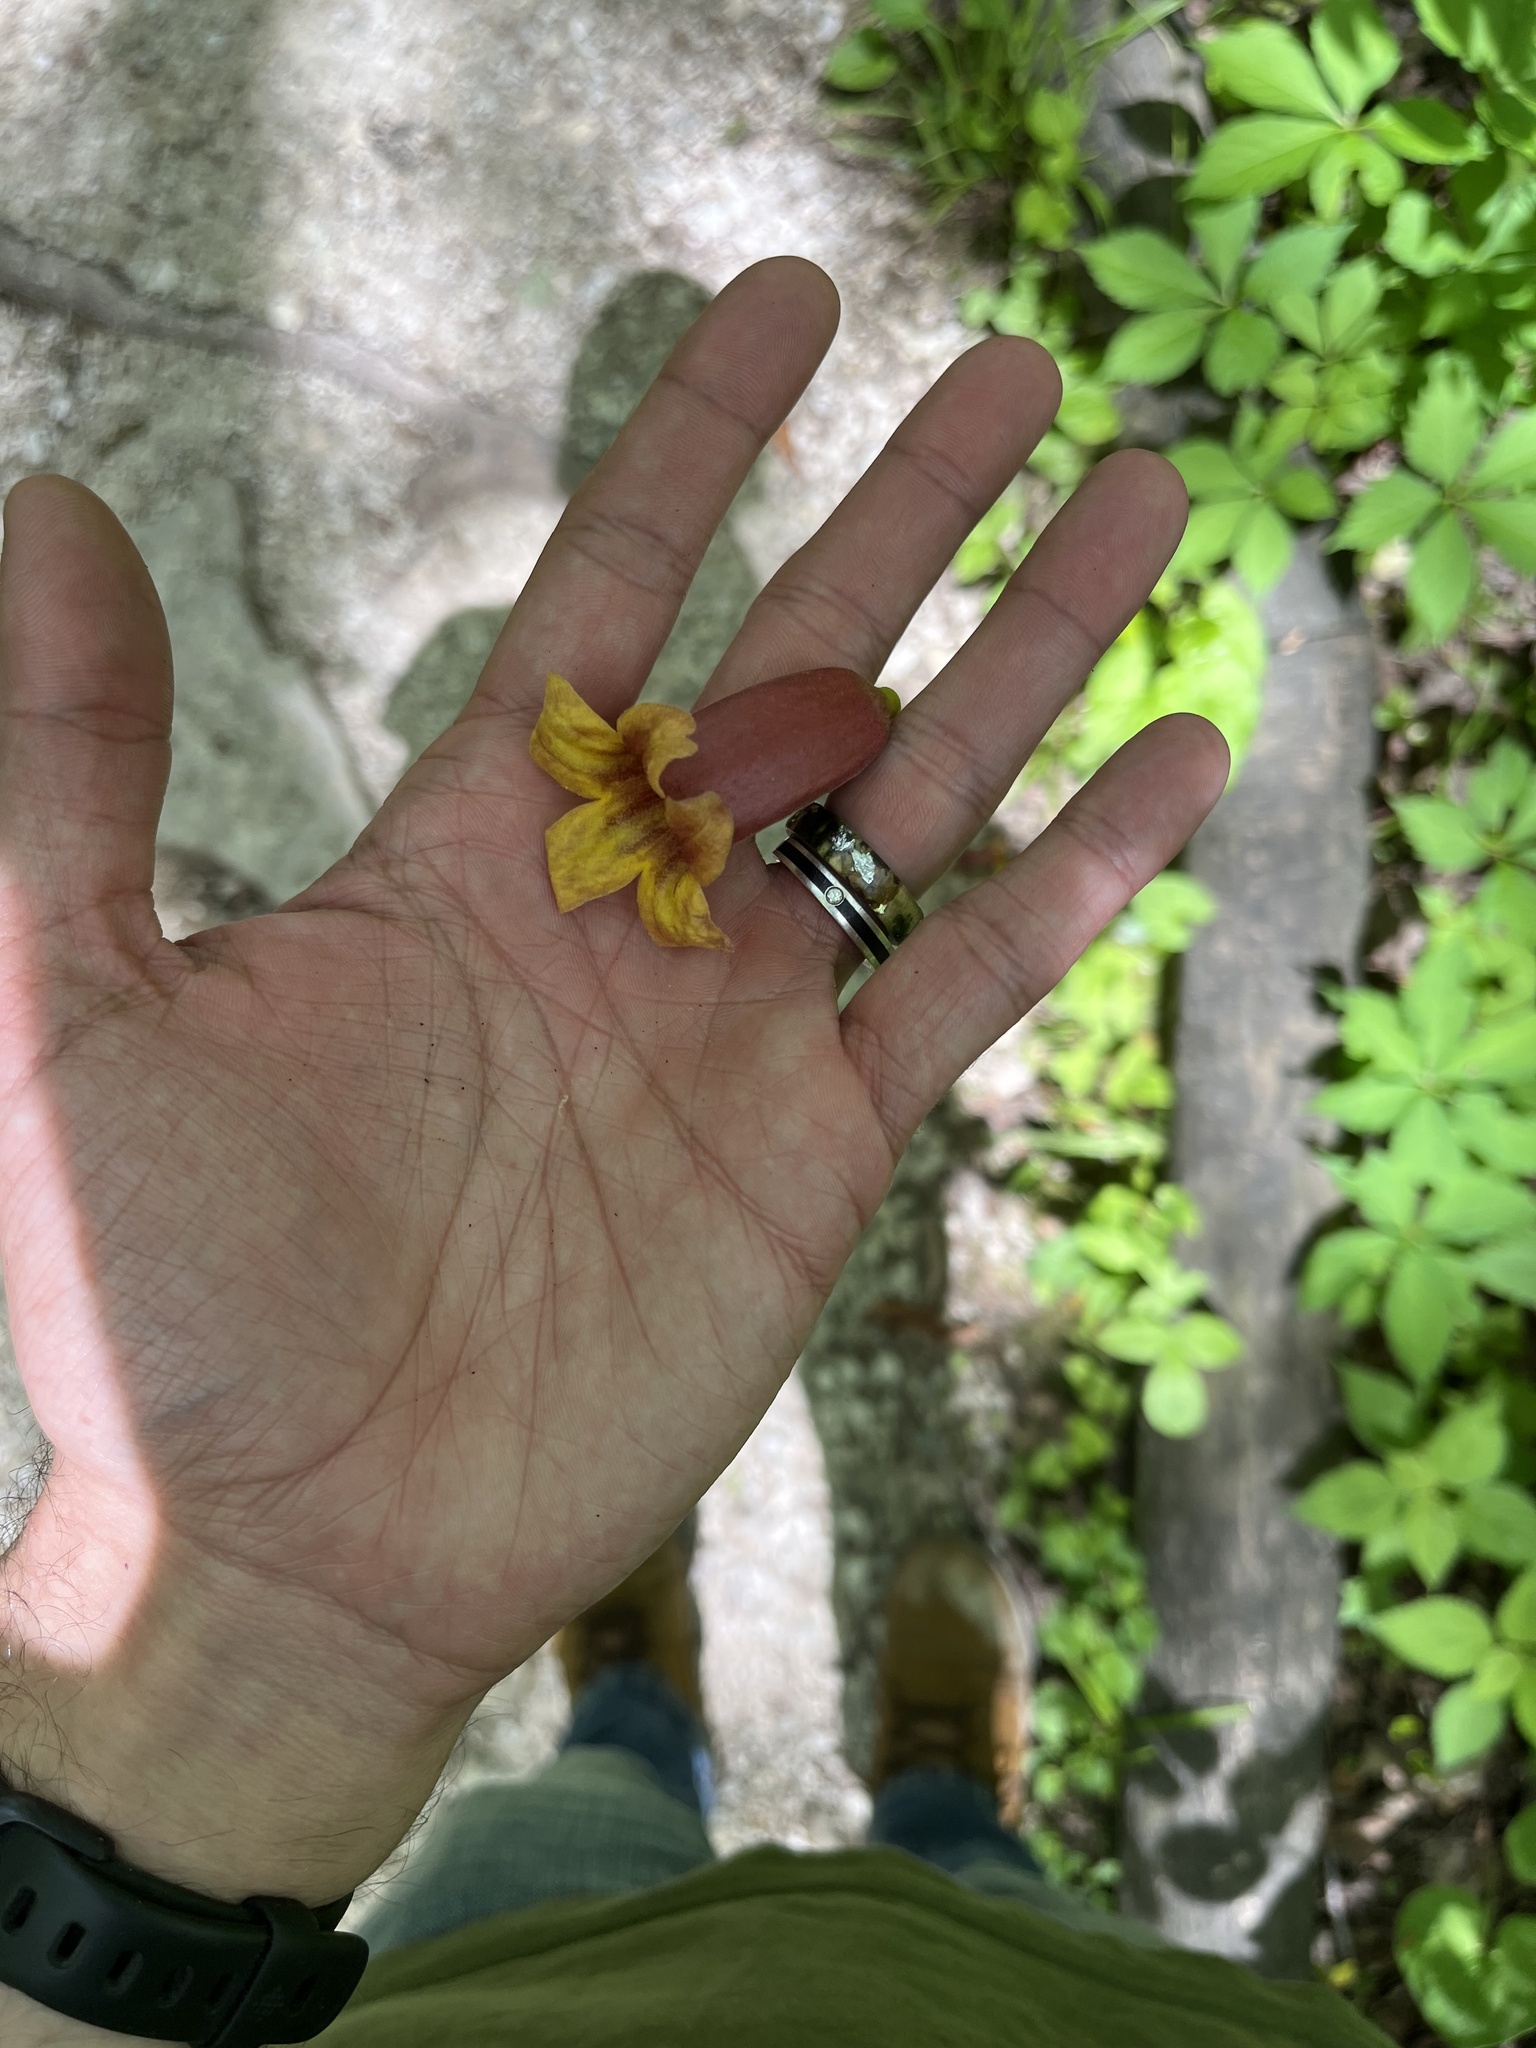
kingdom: Plantae
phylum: Tracheophyta
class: Magnoliopsida
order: Lamiales
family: Bignoniaceae
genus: Bignonia
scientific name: Bignonia capreolata
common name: Crossvine
